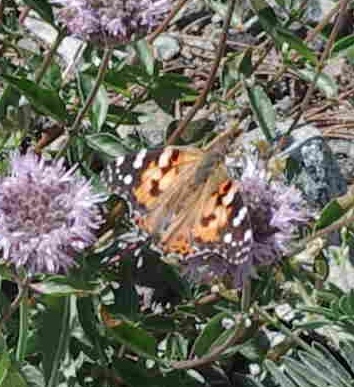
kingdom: Animalia
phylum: Arthropoda
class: Insecta
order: Lepidoptera
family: Nymphalidae
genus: Vanessa
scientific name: Vanessa cardui
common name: Painted lady
